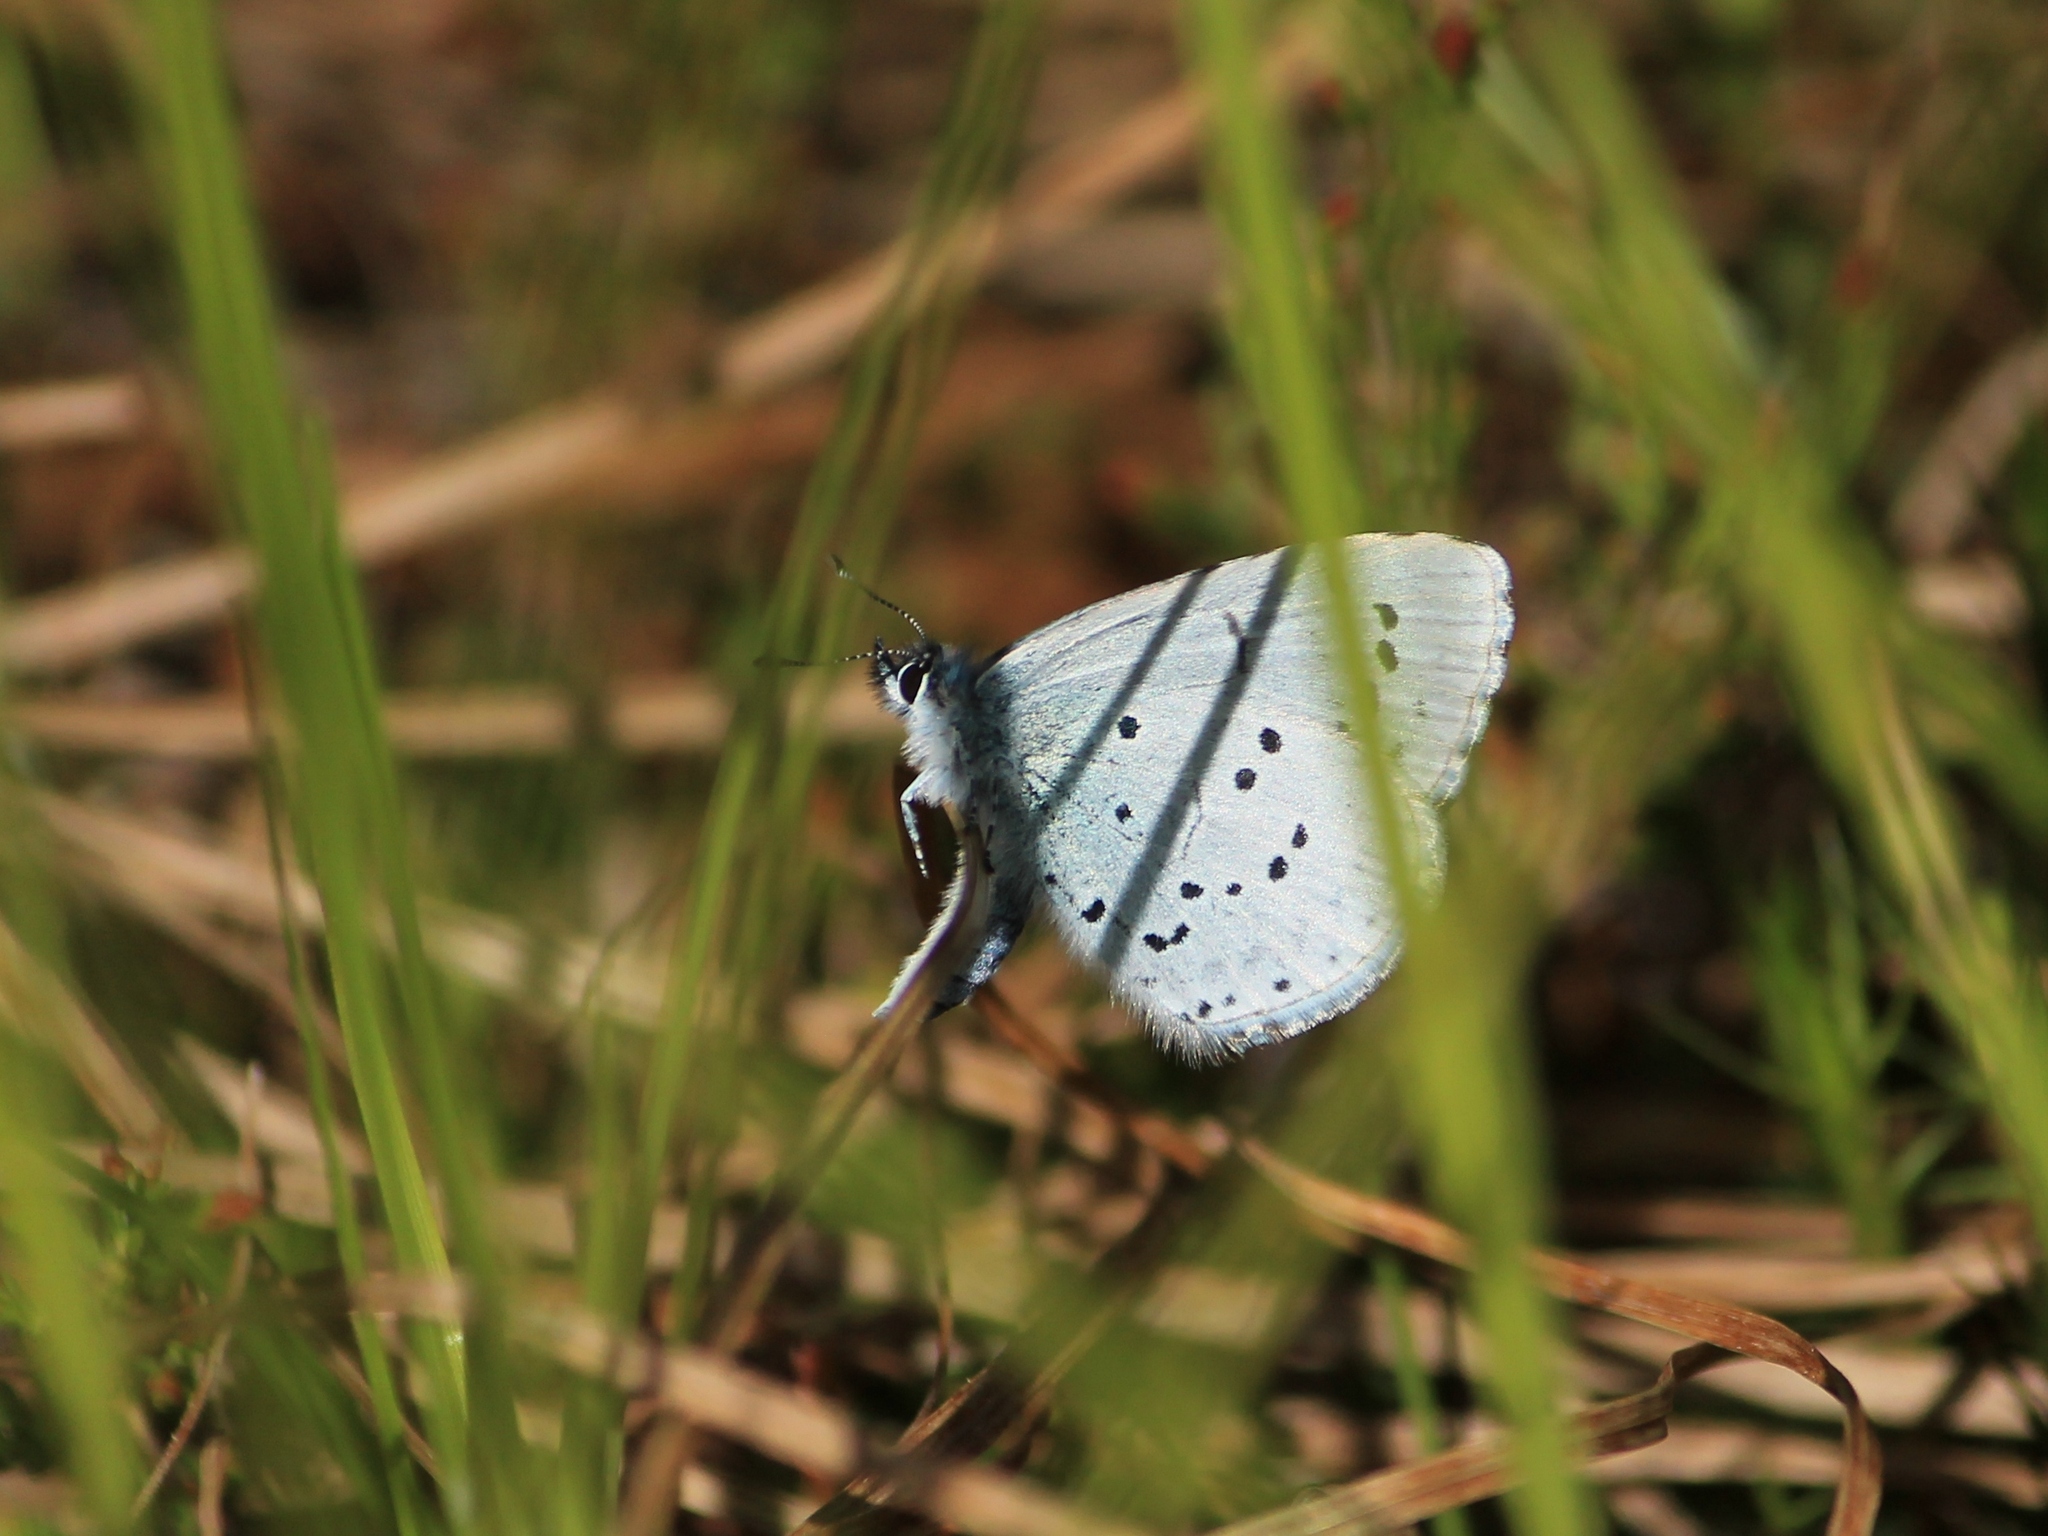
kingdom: Animalia
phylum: Arthropoda
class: Insecta
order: Lepidoptera
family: Lycaenidae
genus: Celastrina
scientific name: Celastrina argiolus
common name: Holly blue
